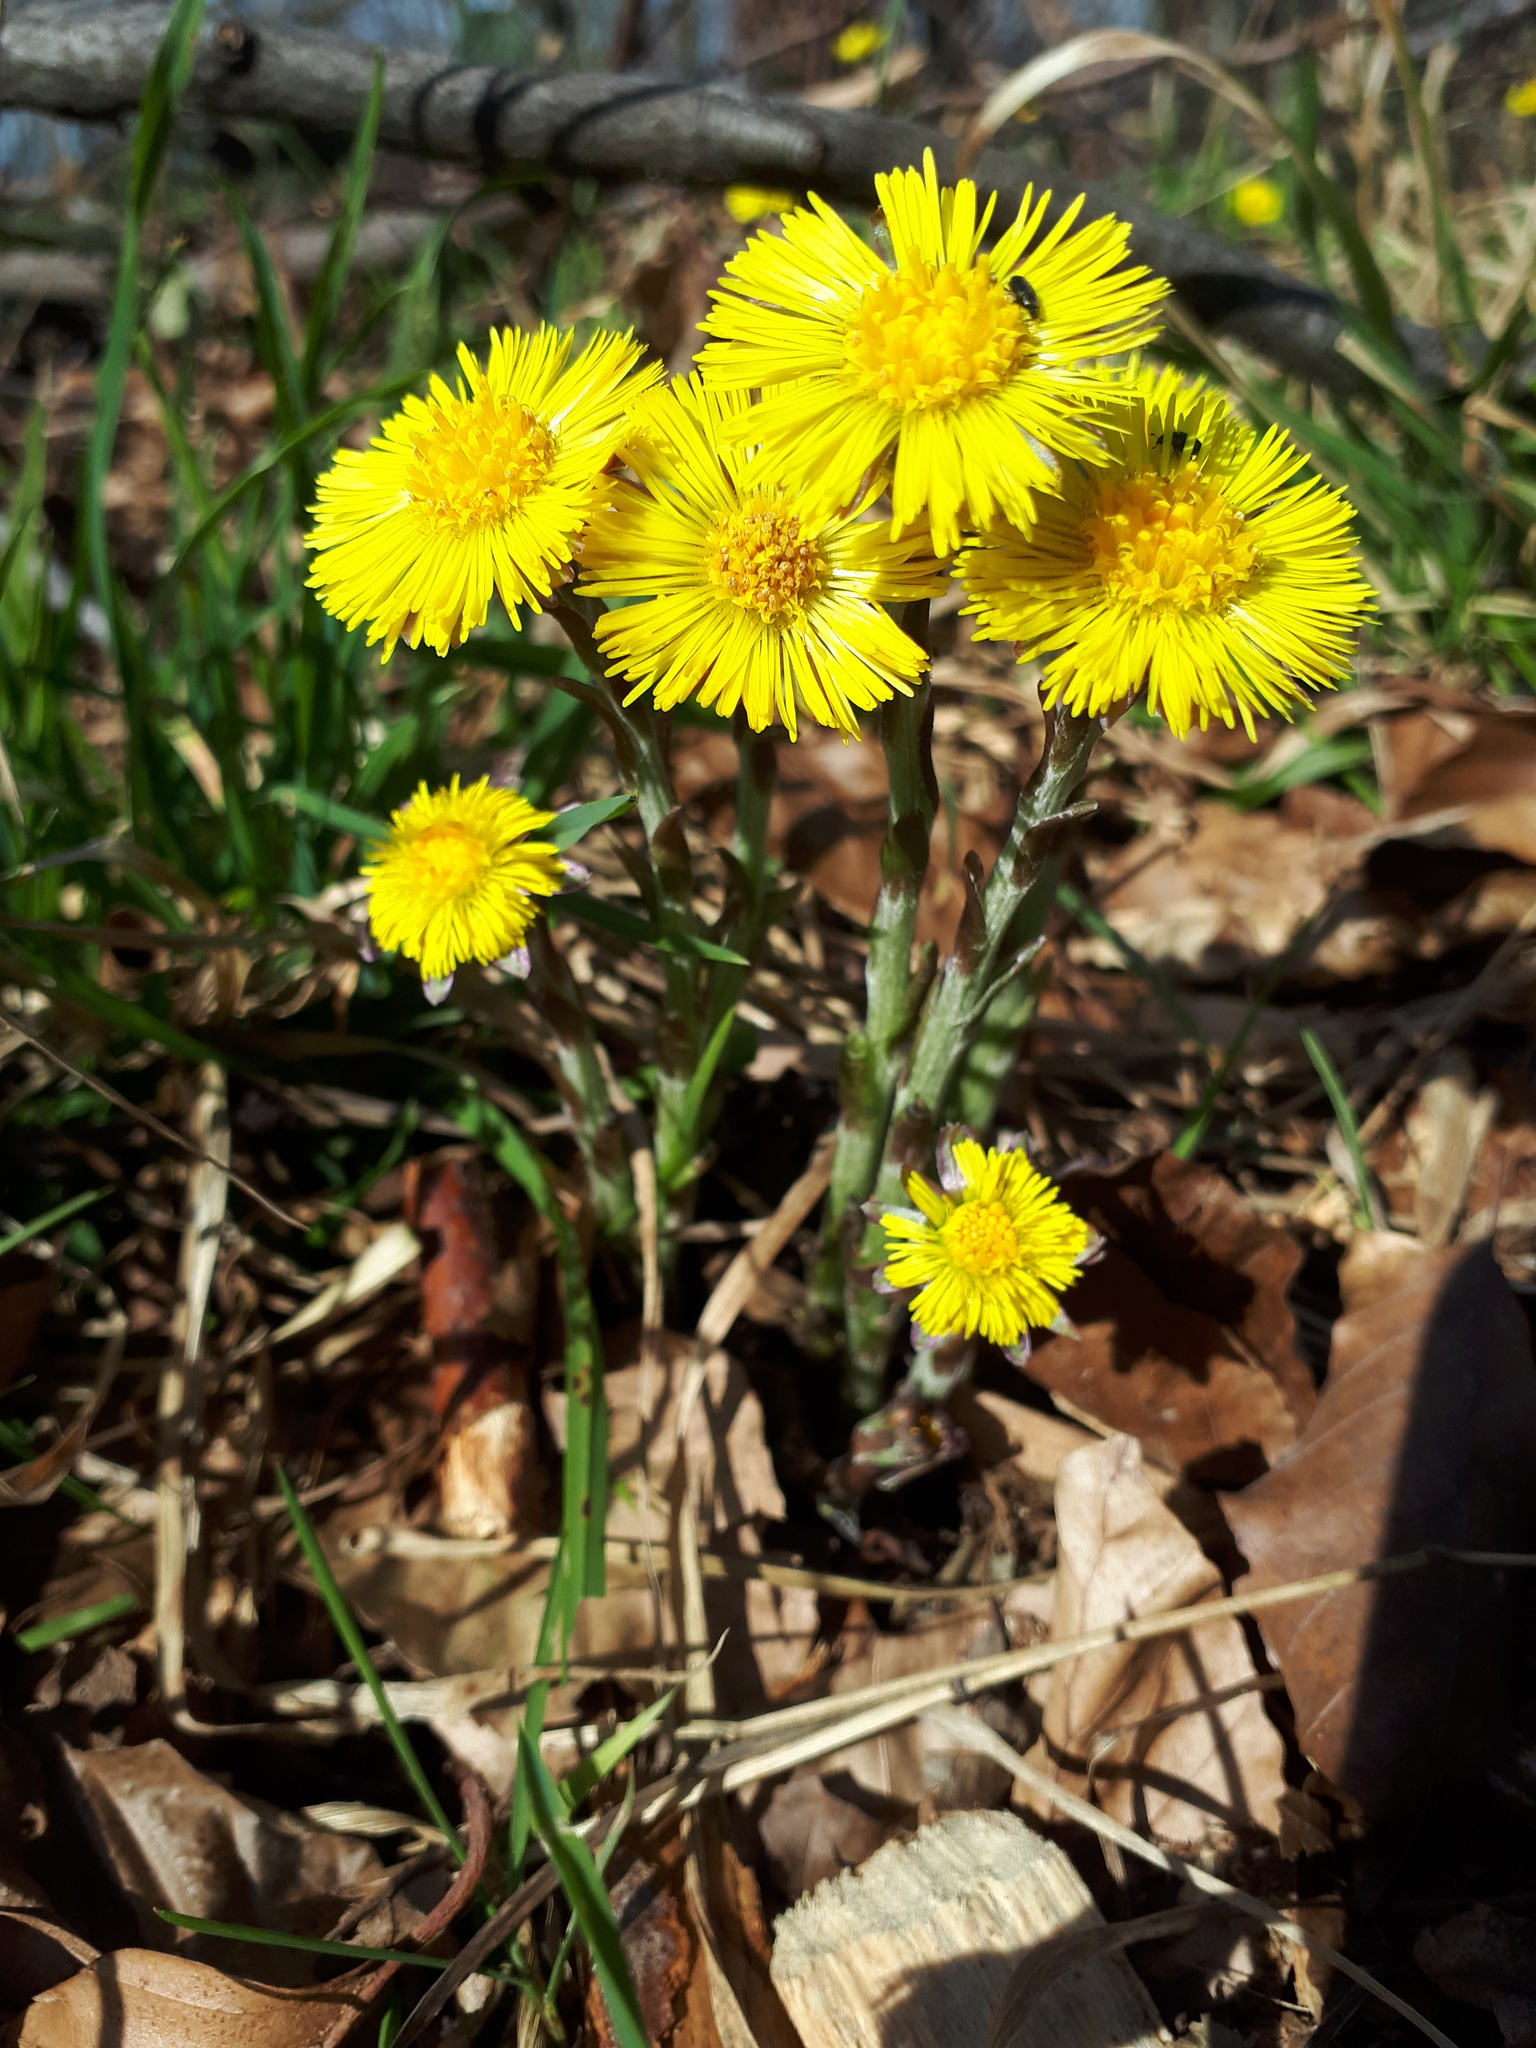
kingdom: Plantae
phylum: Tracheophyta
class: Magnoliopsida
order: Asterales
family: Asteraceae
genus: Tussilago
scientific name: Tussilago farfara
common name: Coltsfoot
